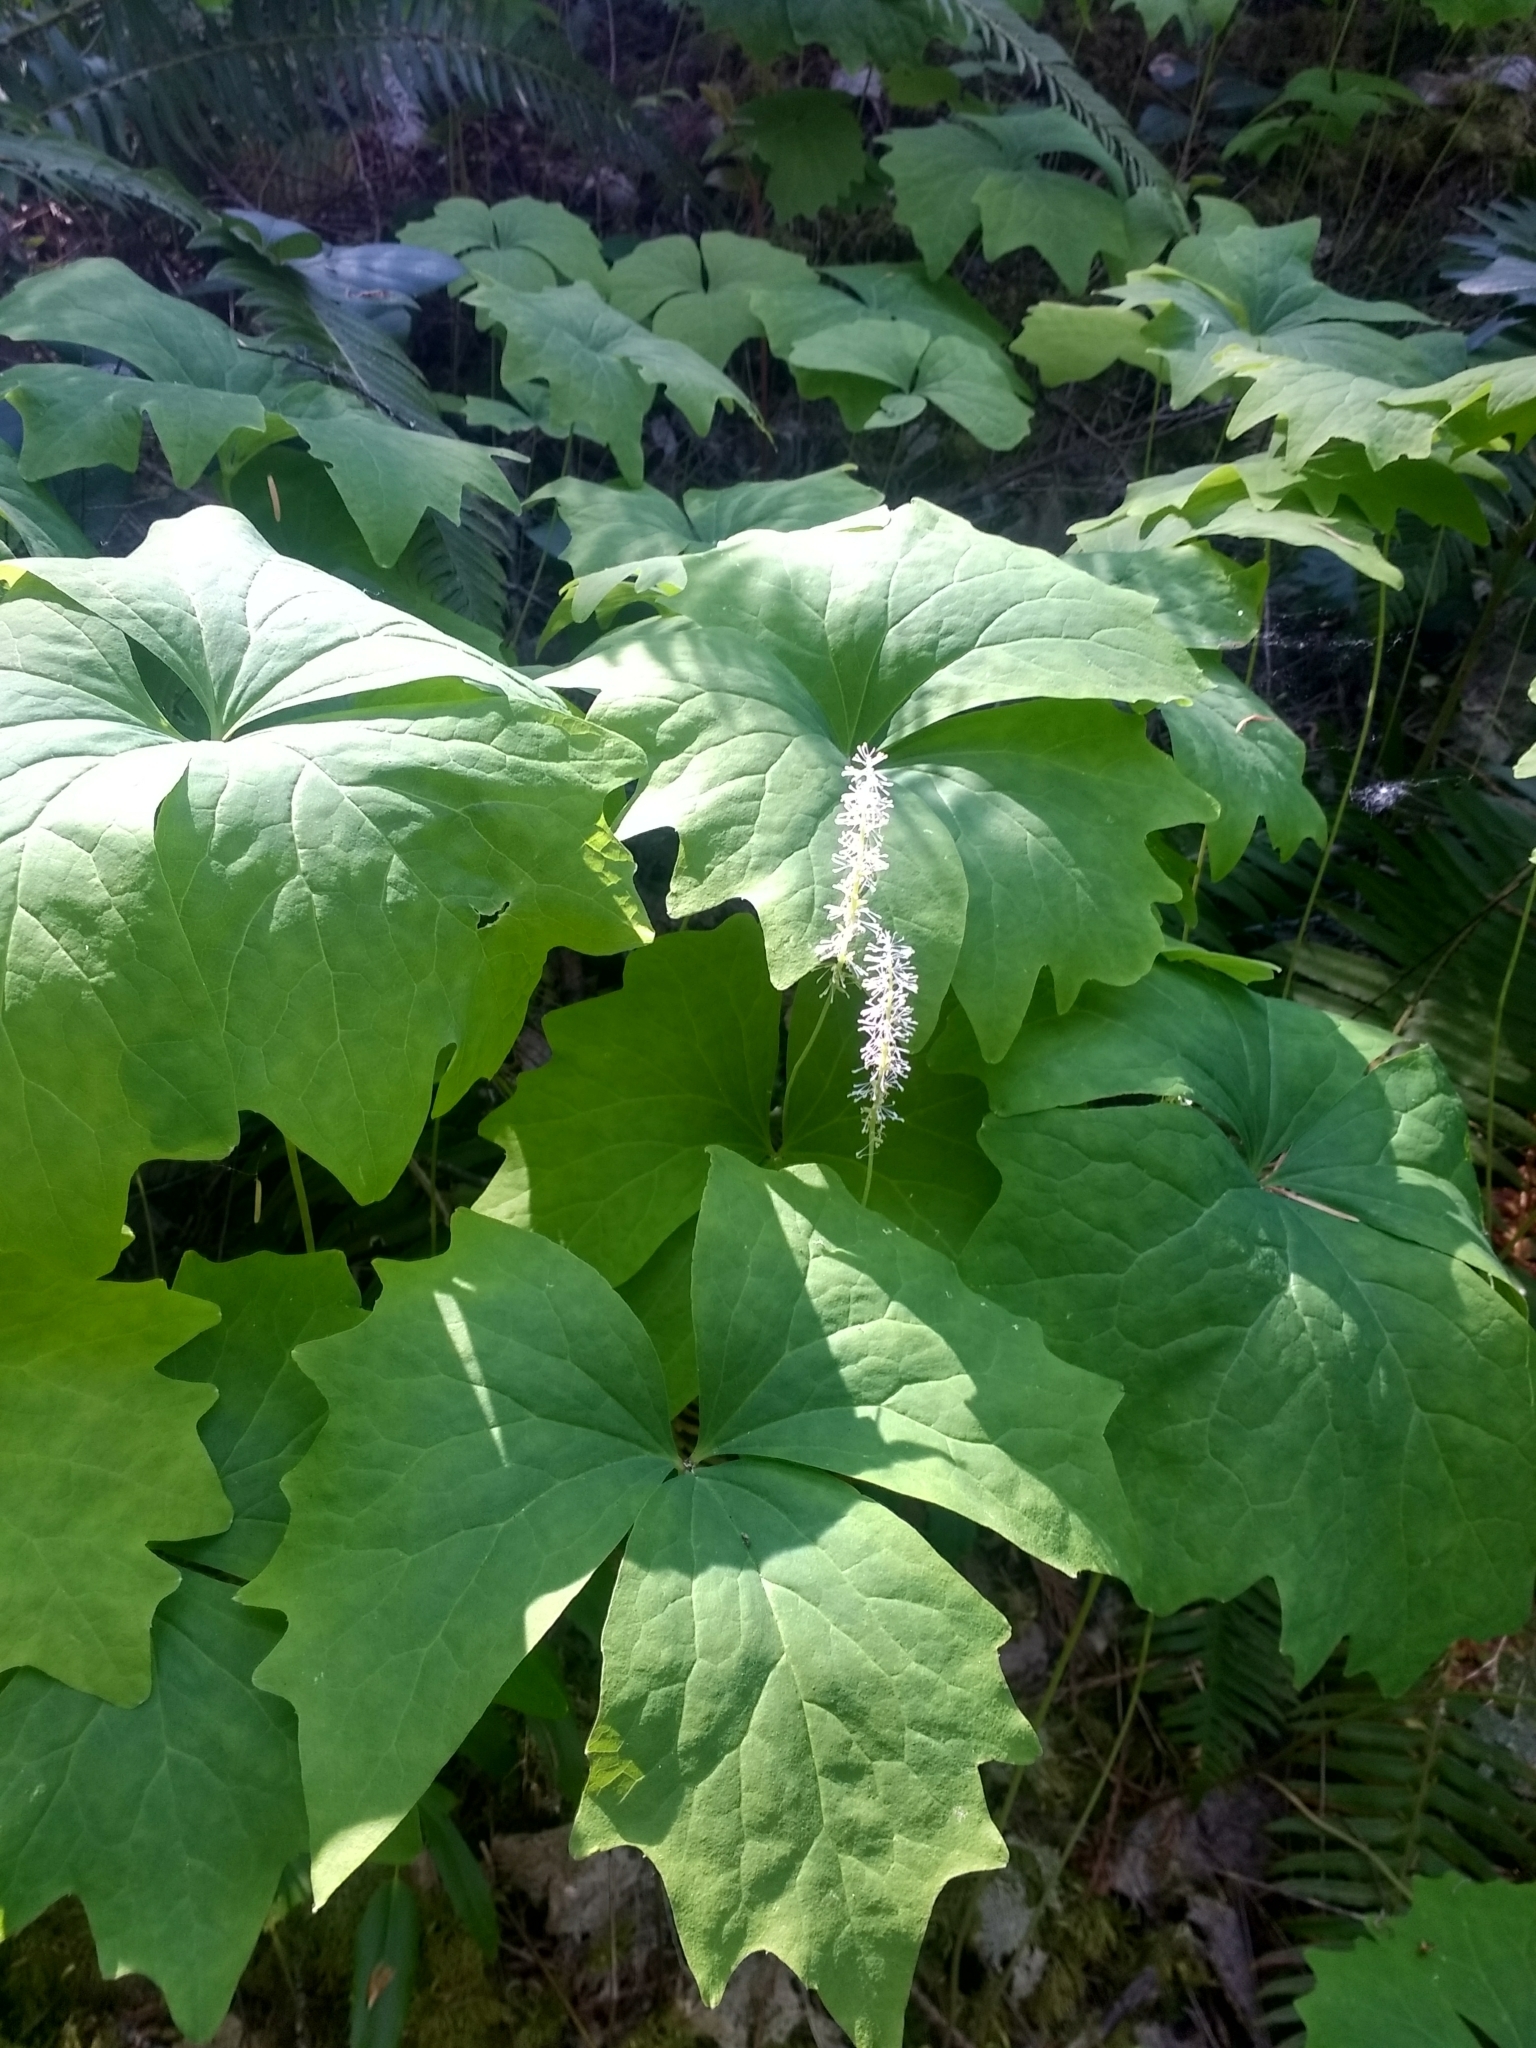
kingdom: Plantae
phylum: Tracheophyta
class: Magnoliopsida
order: Ranunculales
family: Berberidaceae
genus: Achlys
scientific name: Achlys triphylla
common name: Vanilla-leaf
